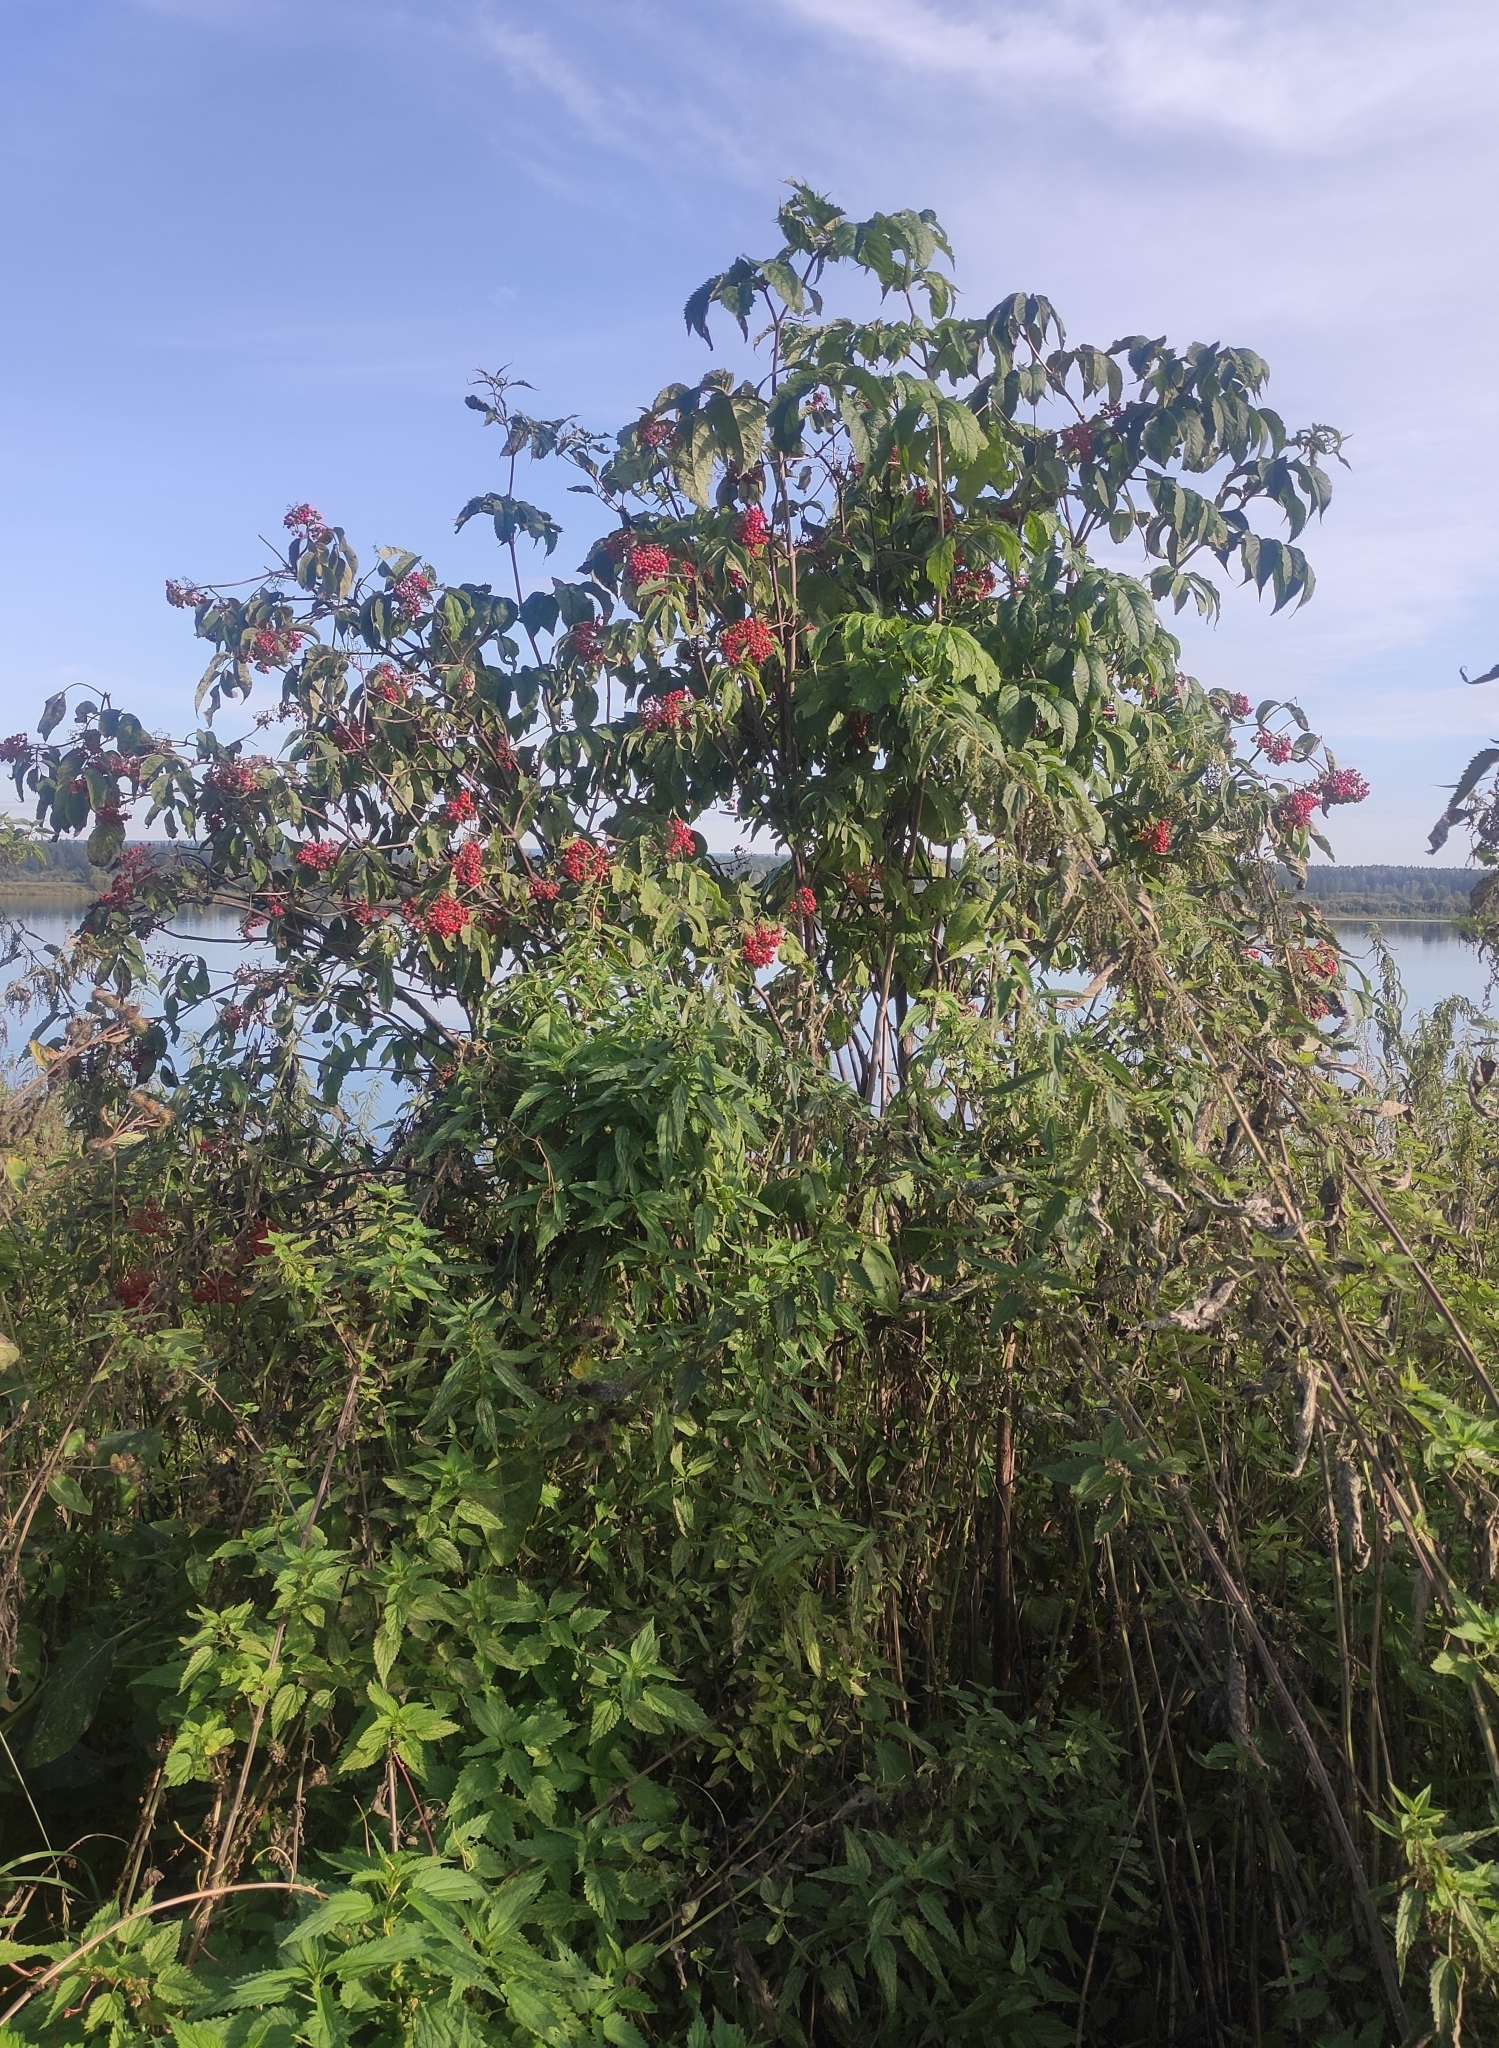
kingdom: Plantae
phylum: Tracheophyta
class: Magnoliopsida
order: Dipsacales
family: Viburnaceae
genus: Sambucus
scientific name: Sambucus sibirica
